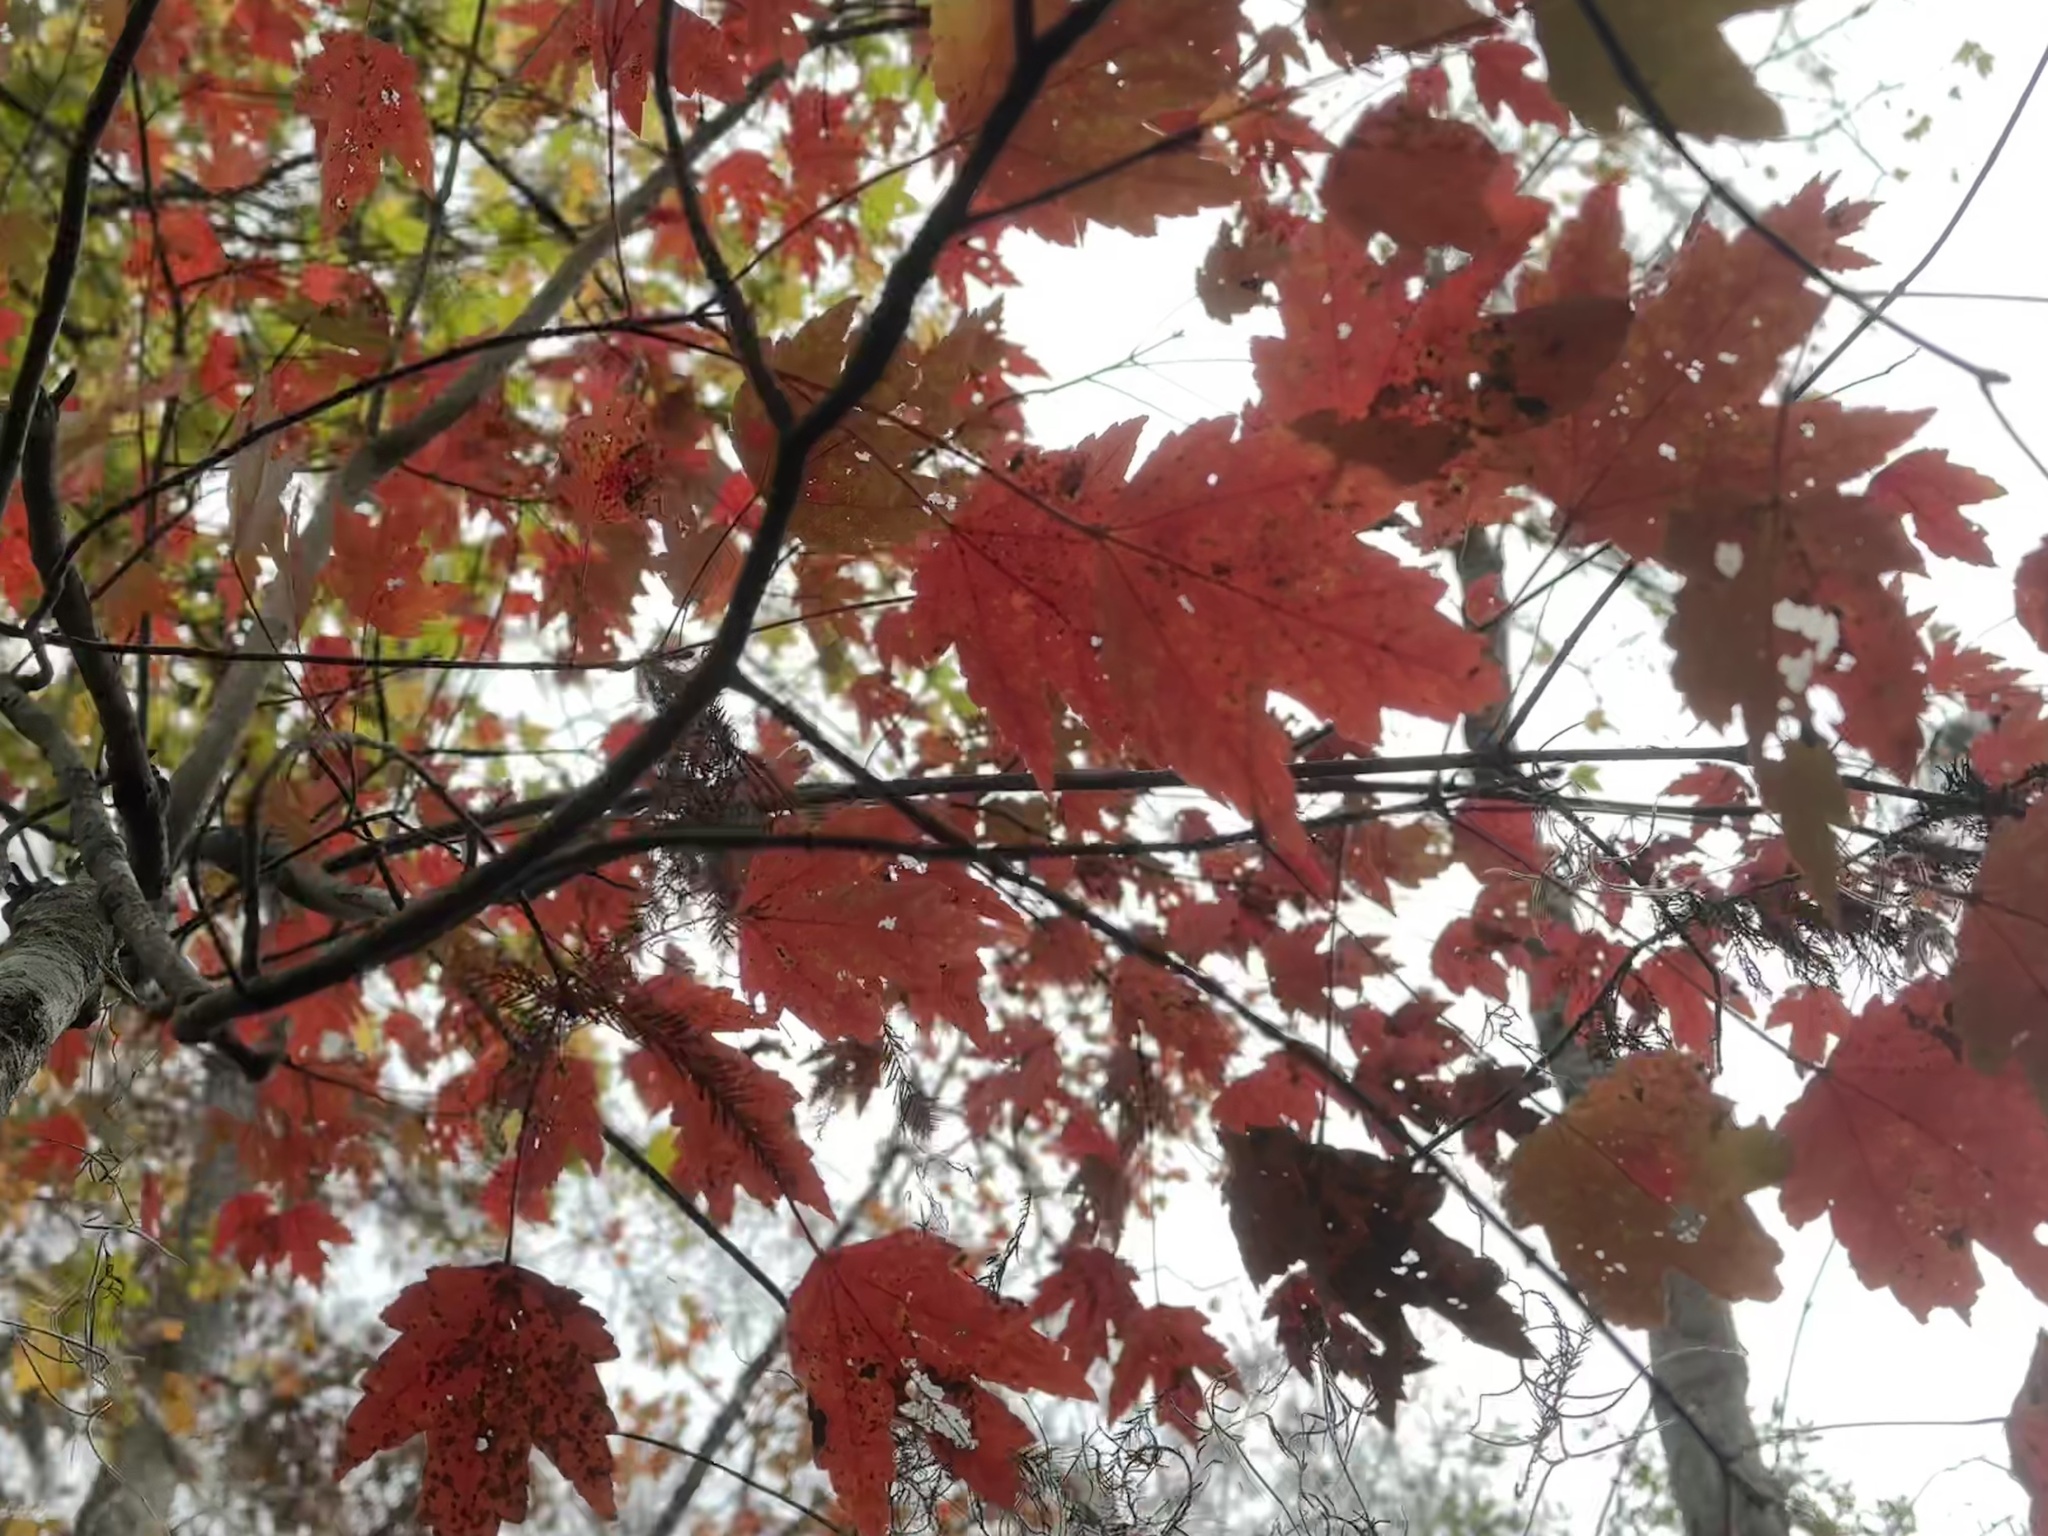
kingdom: Plantae
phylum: Tracheophyta
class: Magnoliopsida
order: Sapindales
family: Sapindaceae
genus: Acer
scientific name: Acer rubrum
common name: Red maple
